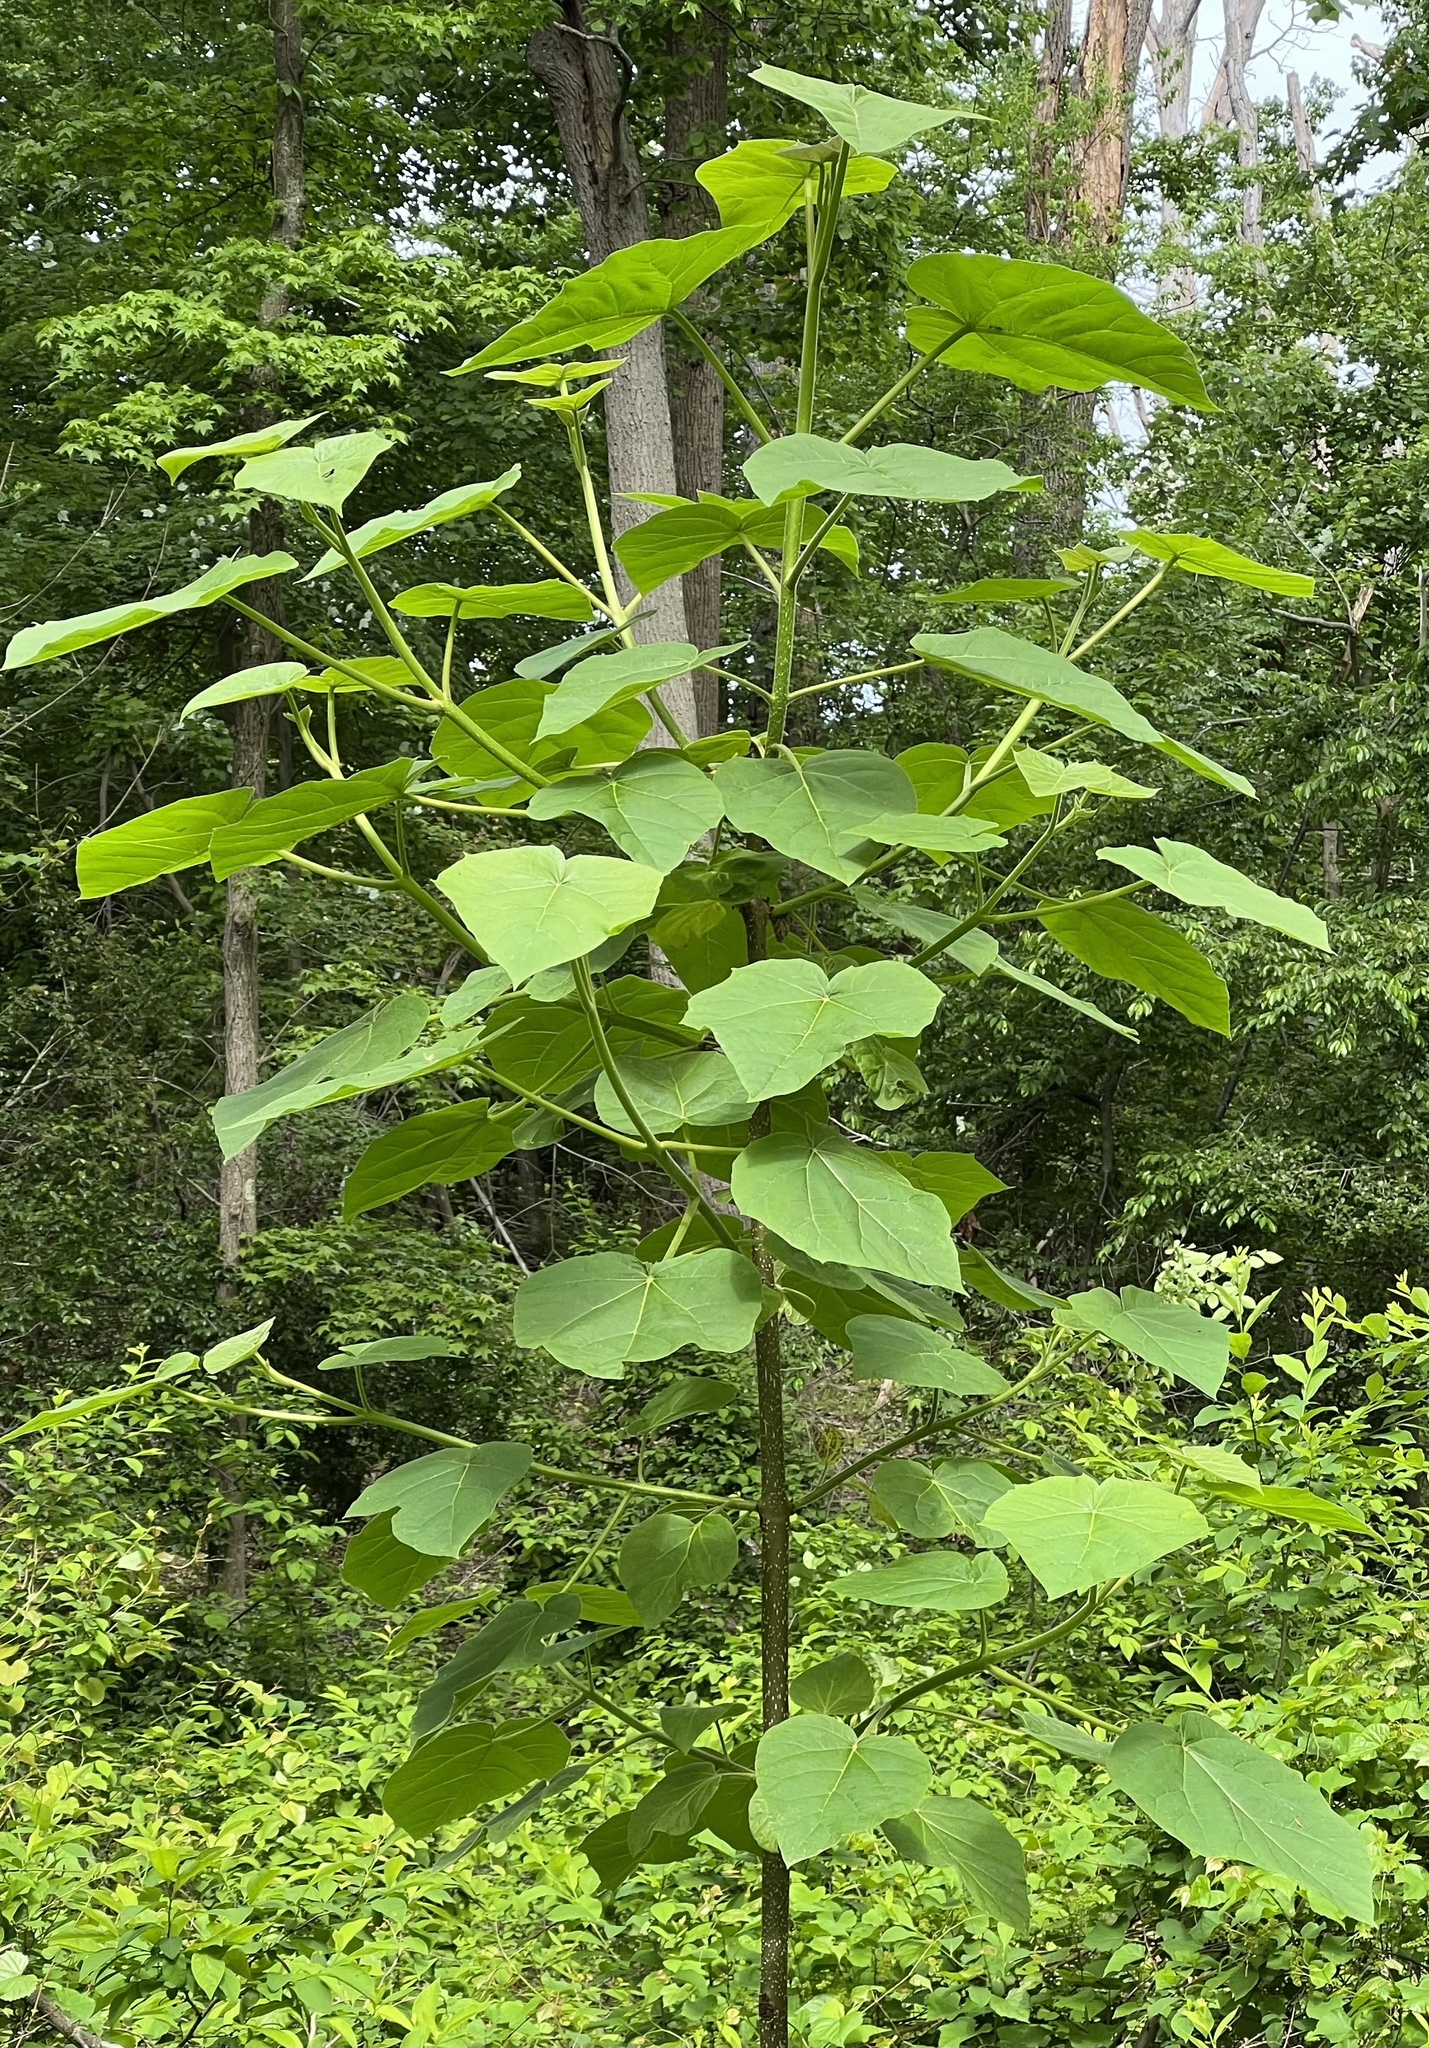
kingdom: Plantae
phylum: Tracheophyta
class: Magnoliopsida
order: Lamiales
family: Paulowniaceae
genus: Paulownia
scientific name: Paulownia tomentosa
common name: Foxglove-tree
